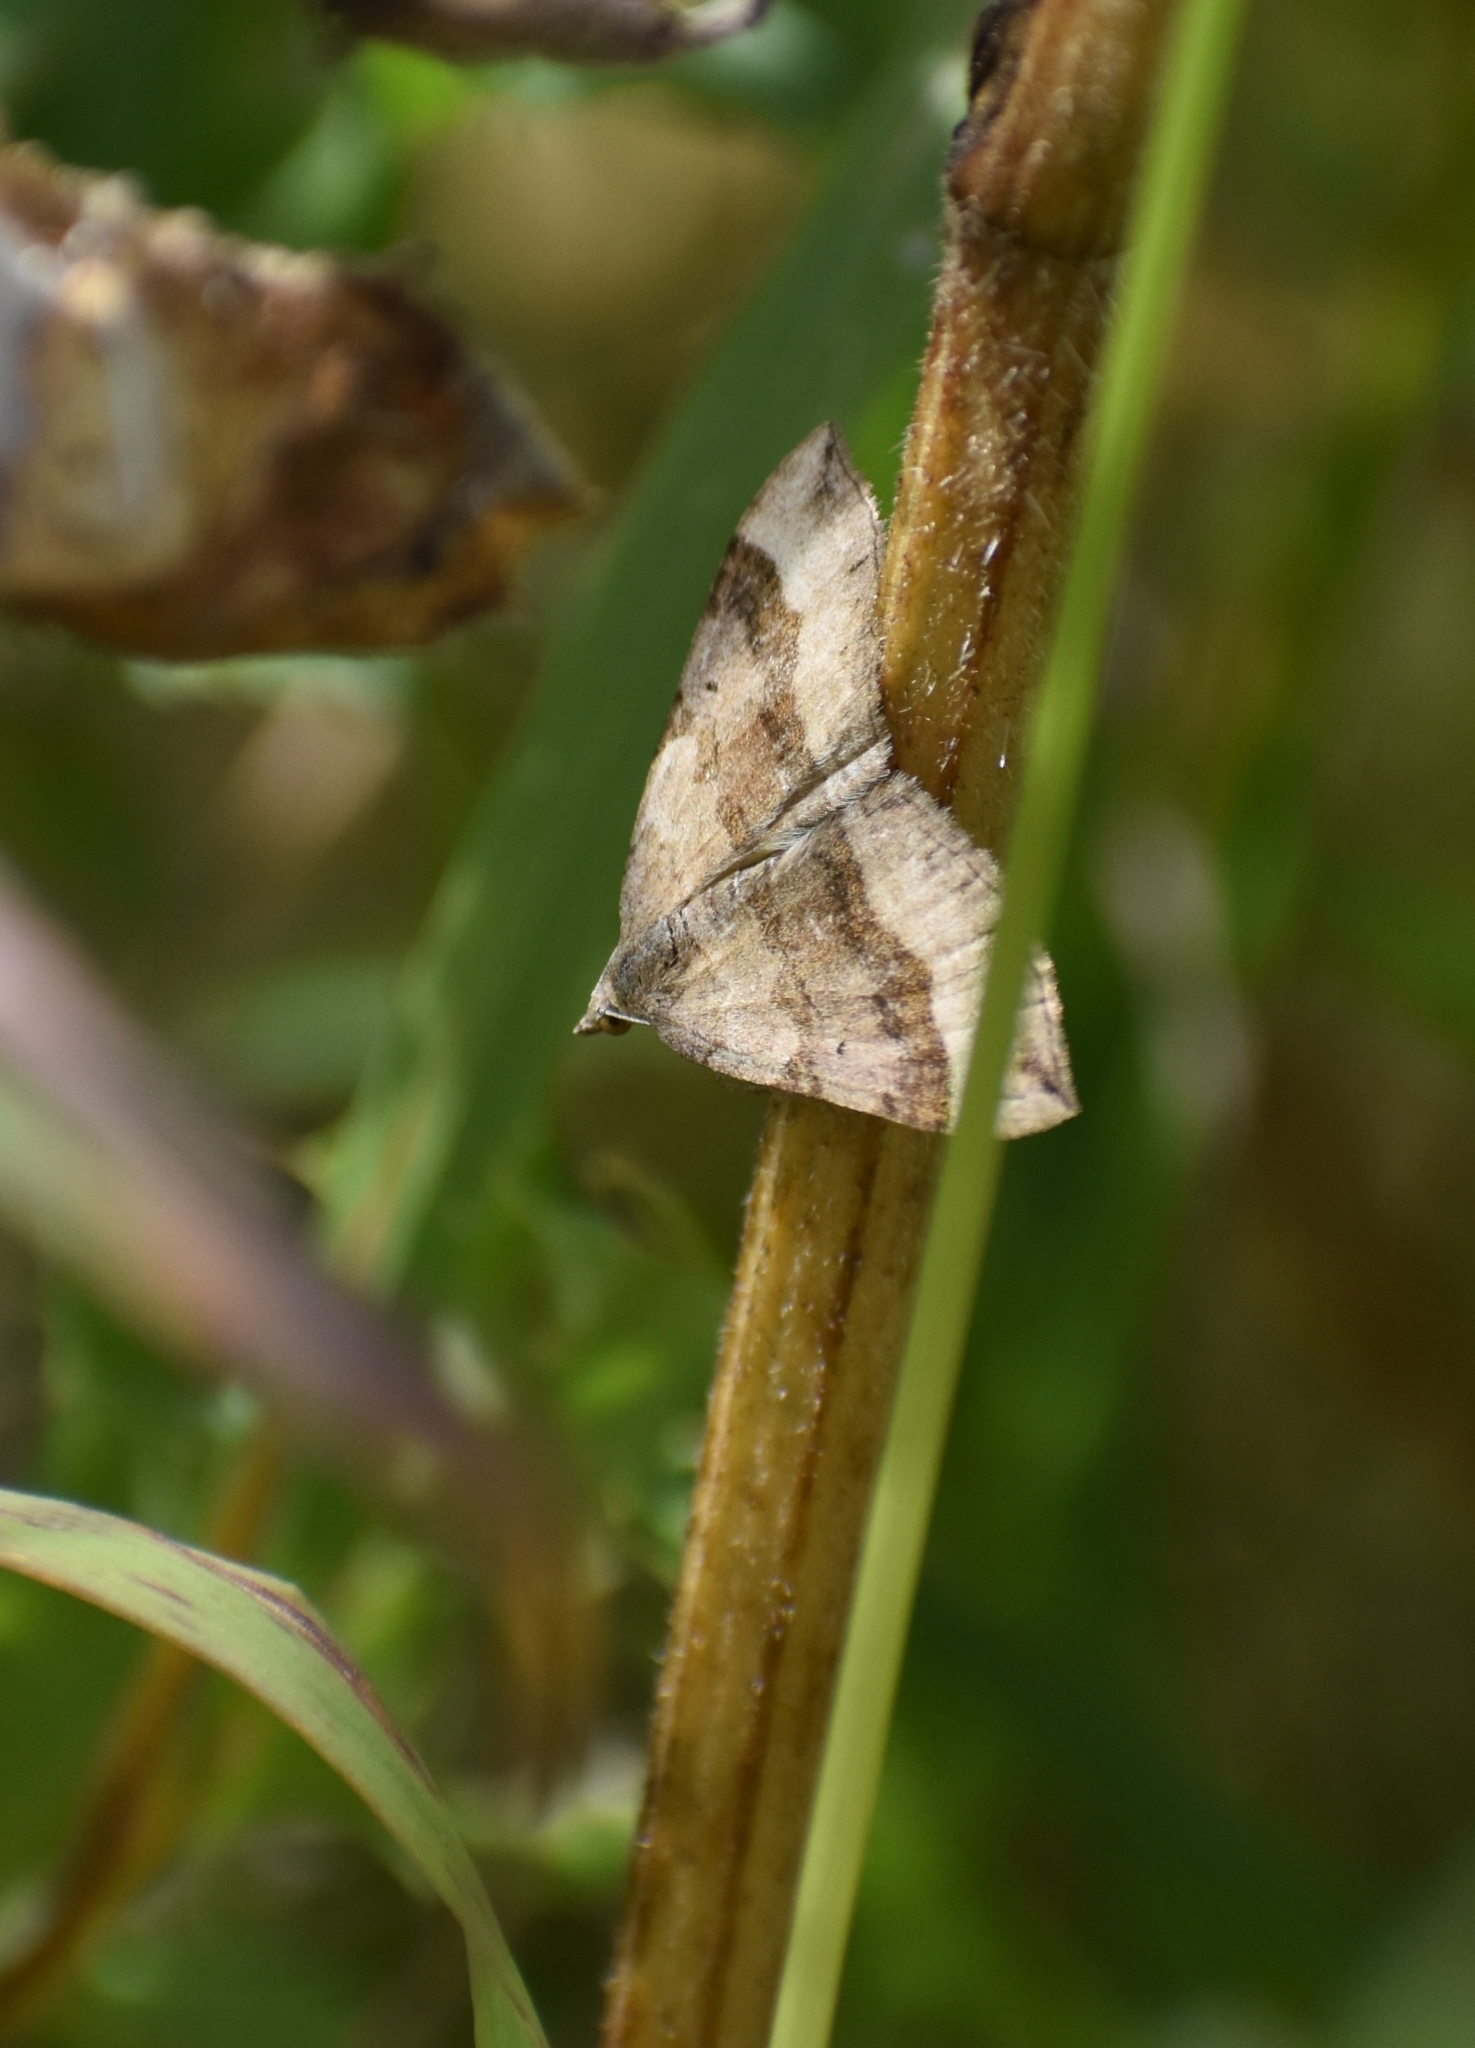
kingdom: Animalia
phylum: Arthropoda
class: Insecta
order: Lepidoptera
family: Geometridae
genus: Scotopteryx
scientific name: Scotopteryx chenopodiata
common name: Shaded broad-bar
